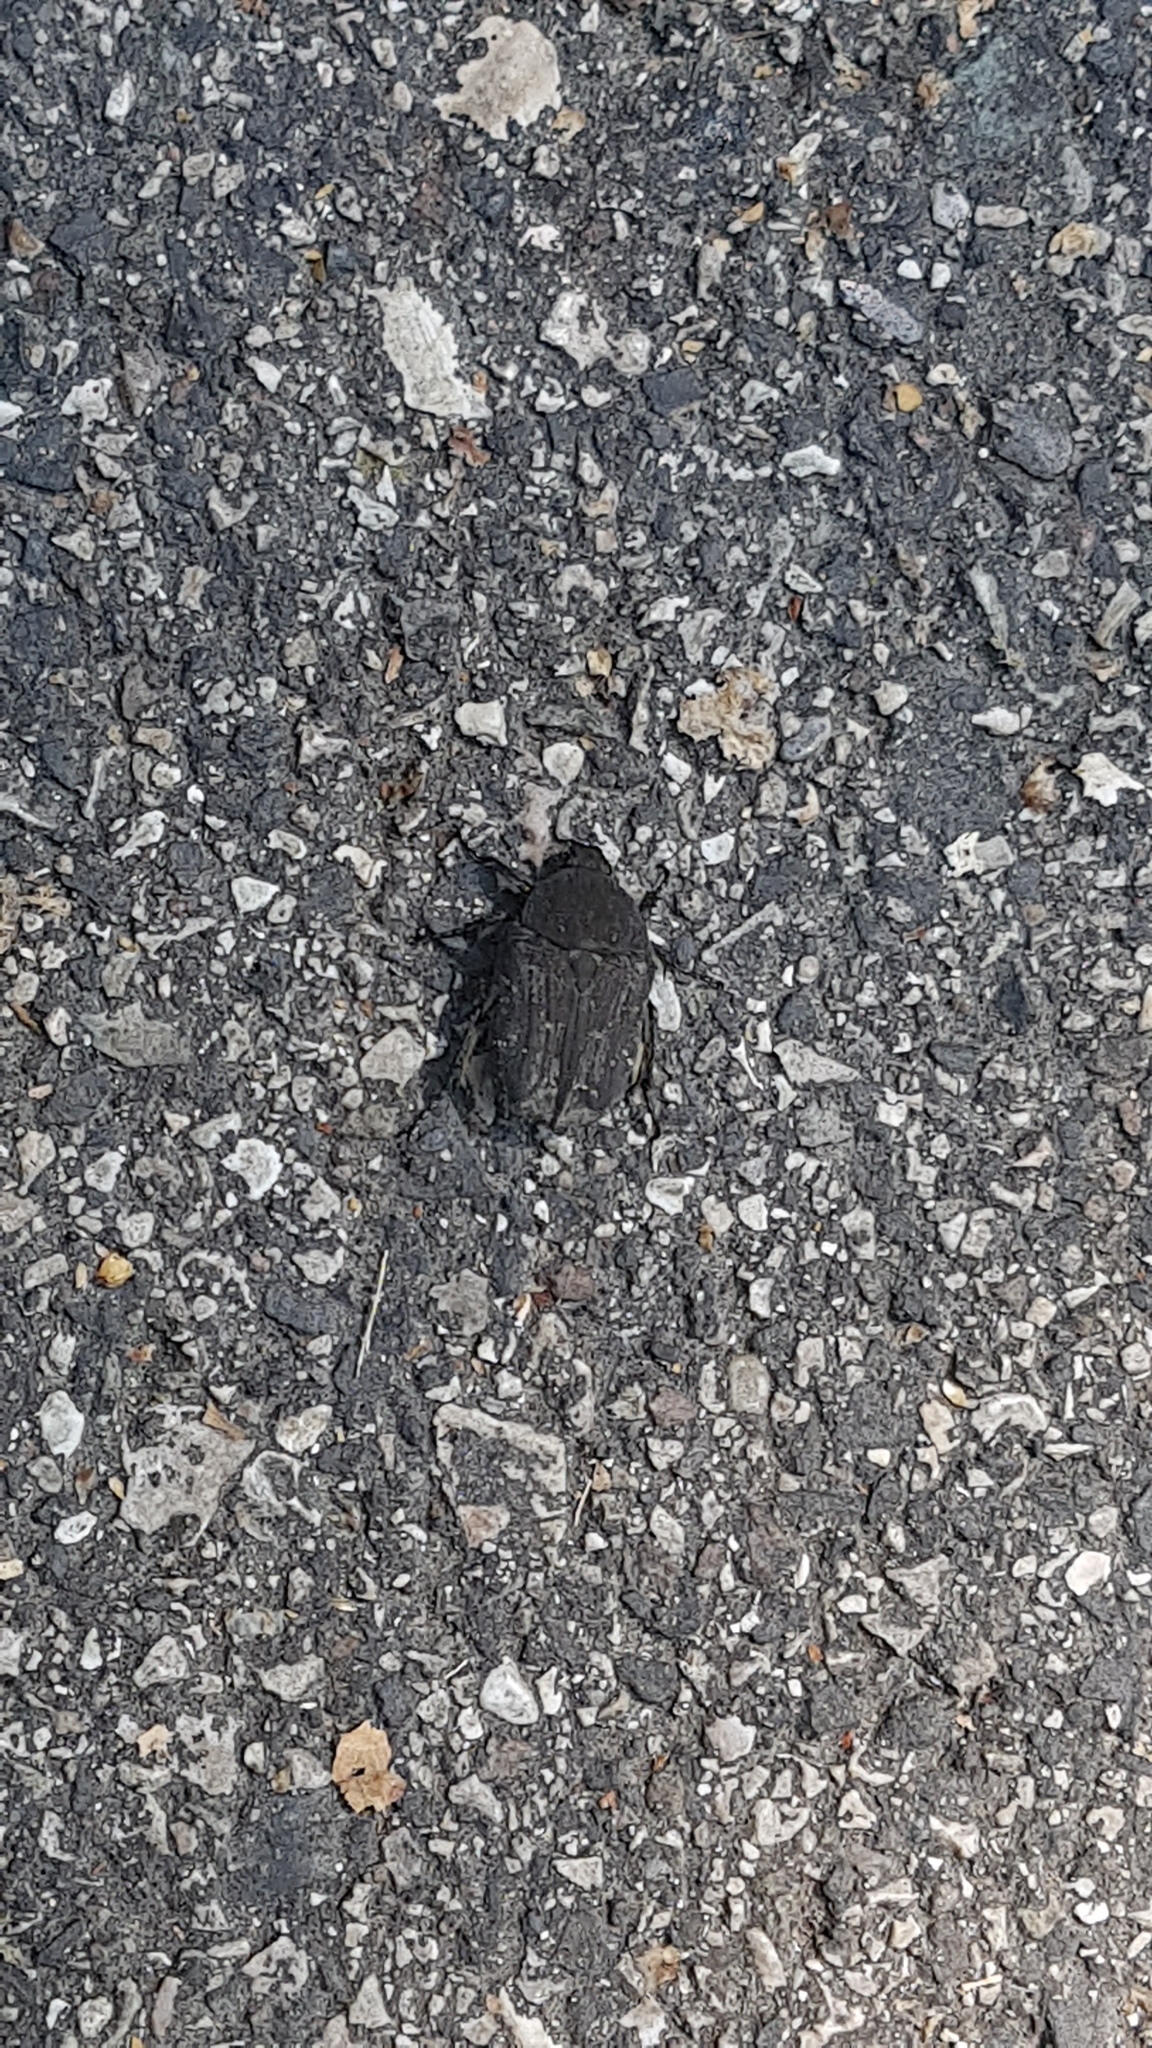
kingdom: Animalia
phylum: Arthropoda
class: Insecta
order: Coleoptera
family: Scarabaeidae
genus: Protaetia
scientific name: Protaetia morio
